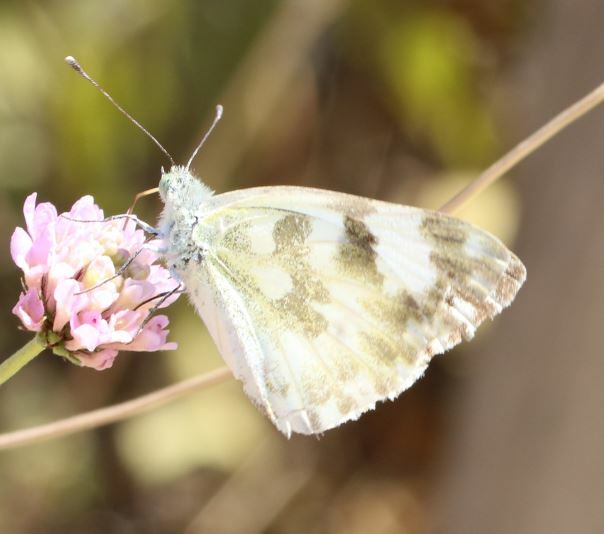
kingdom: Animalia
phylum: Arthropoda
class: Insecta
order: Lepidoptera
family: Pieridae
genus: Pontia
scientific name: Pontia daplidice
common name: Bath white
